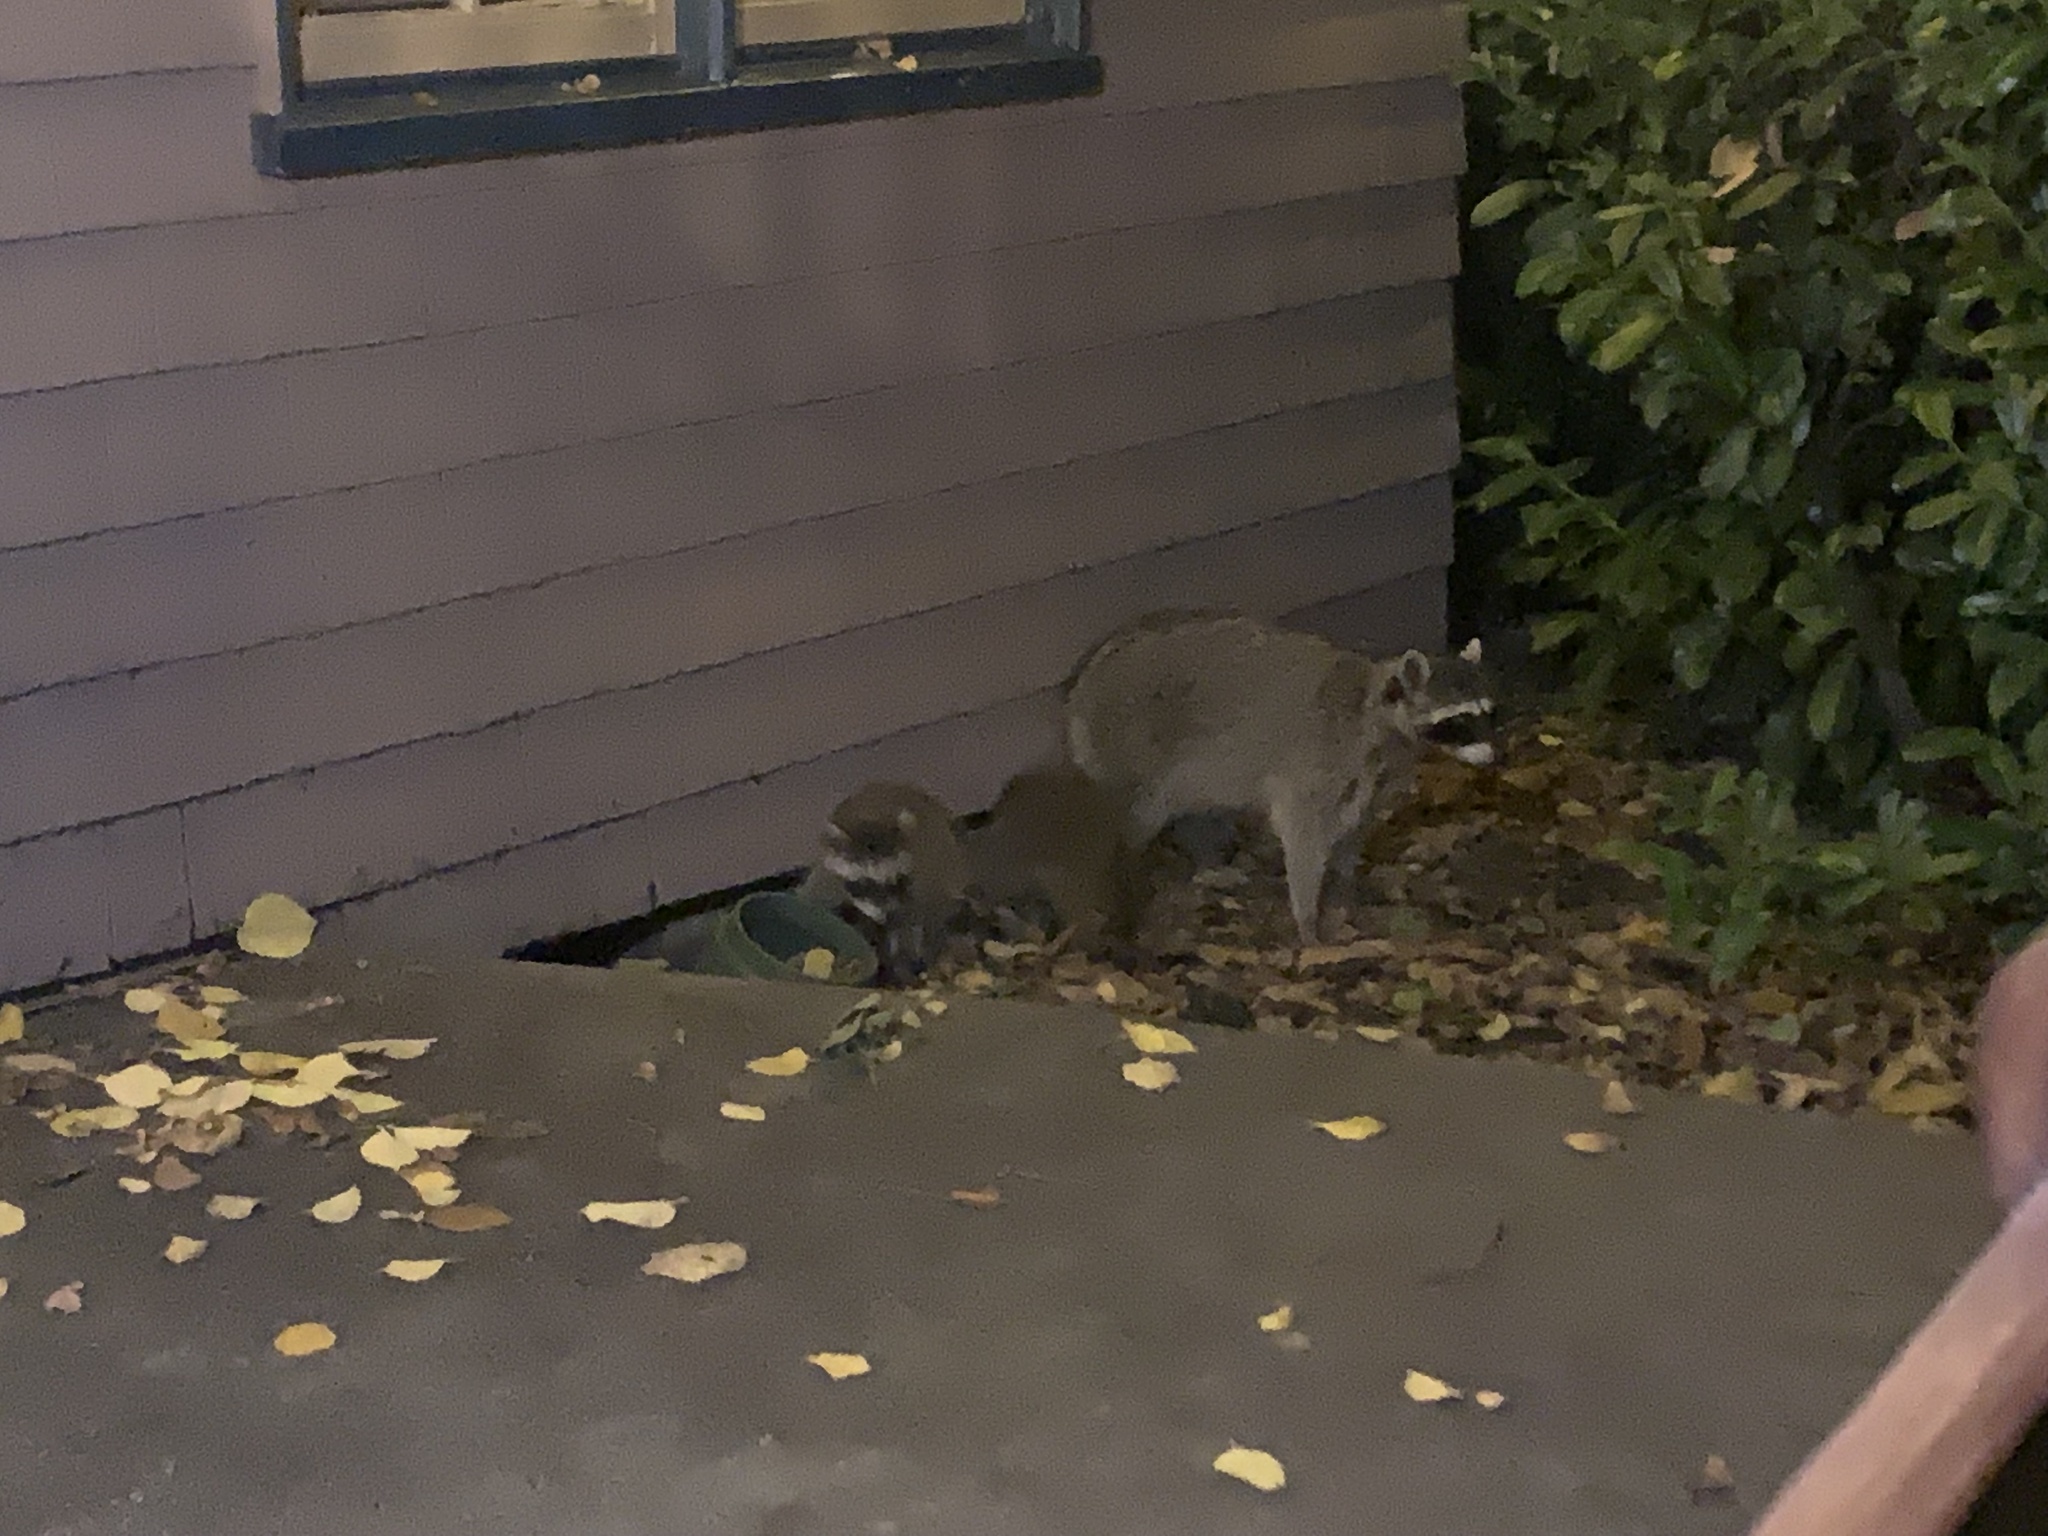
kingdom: Animalia
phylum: Chordata
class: Mammalia
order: Carnivora
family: Procyonidae
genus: Procyon
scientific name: Procyon lotor
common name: Raccoon
